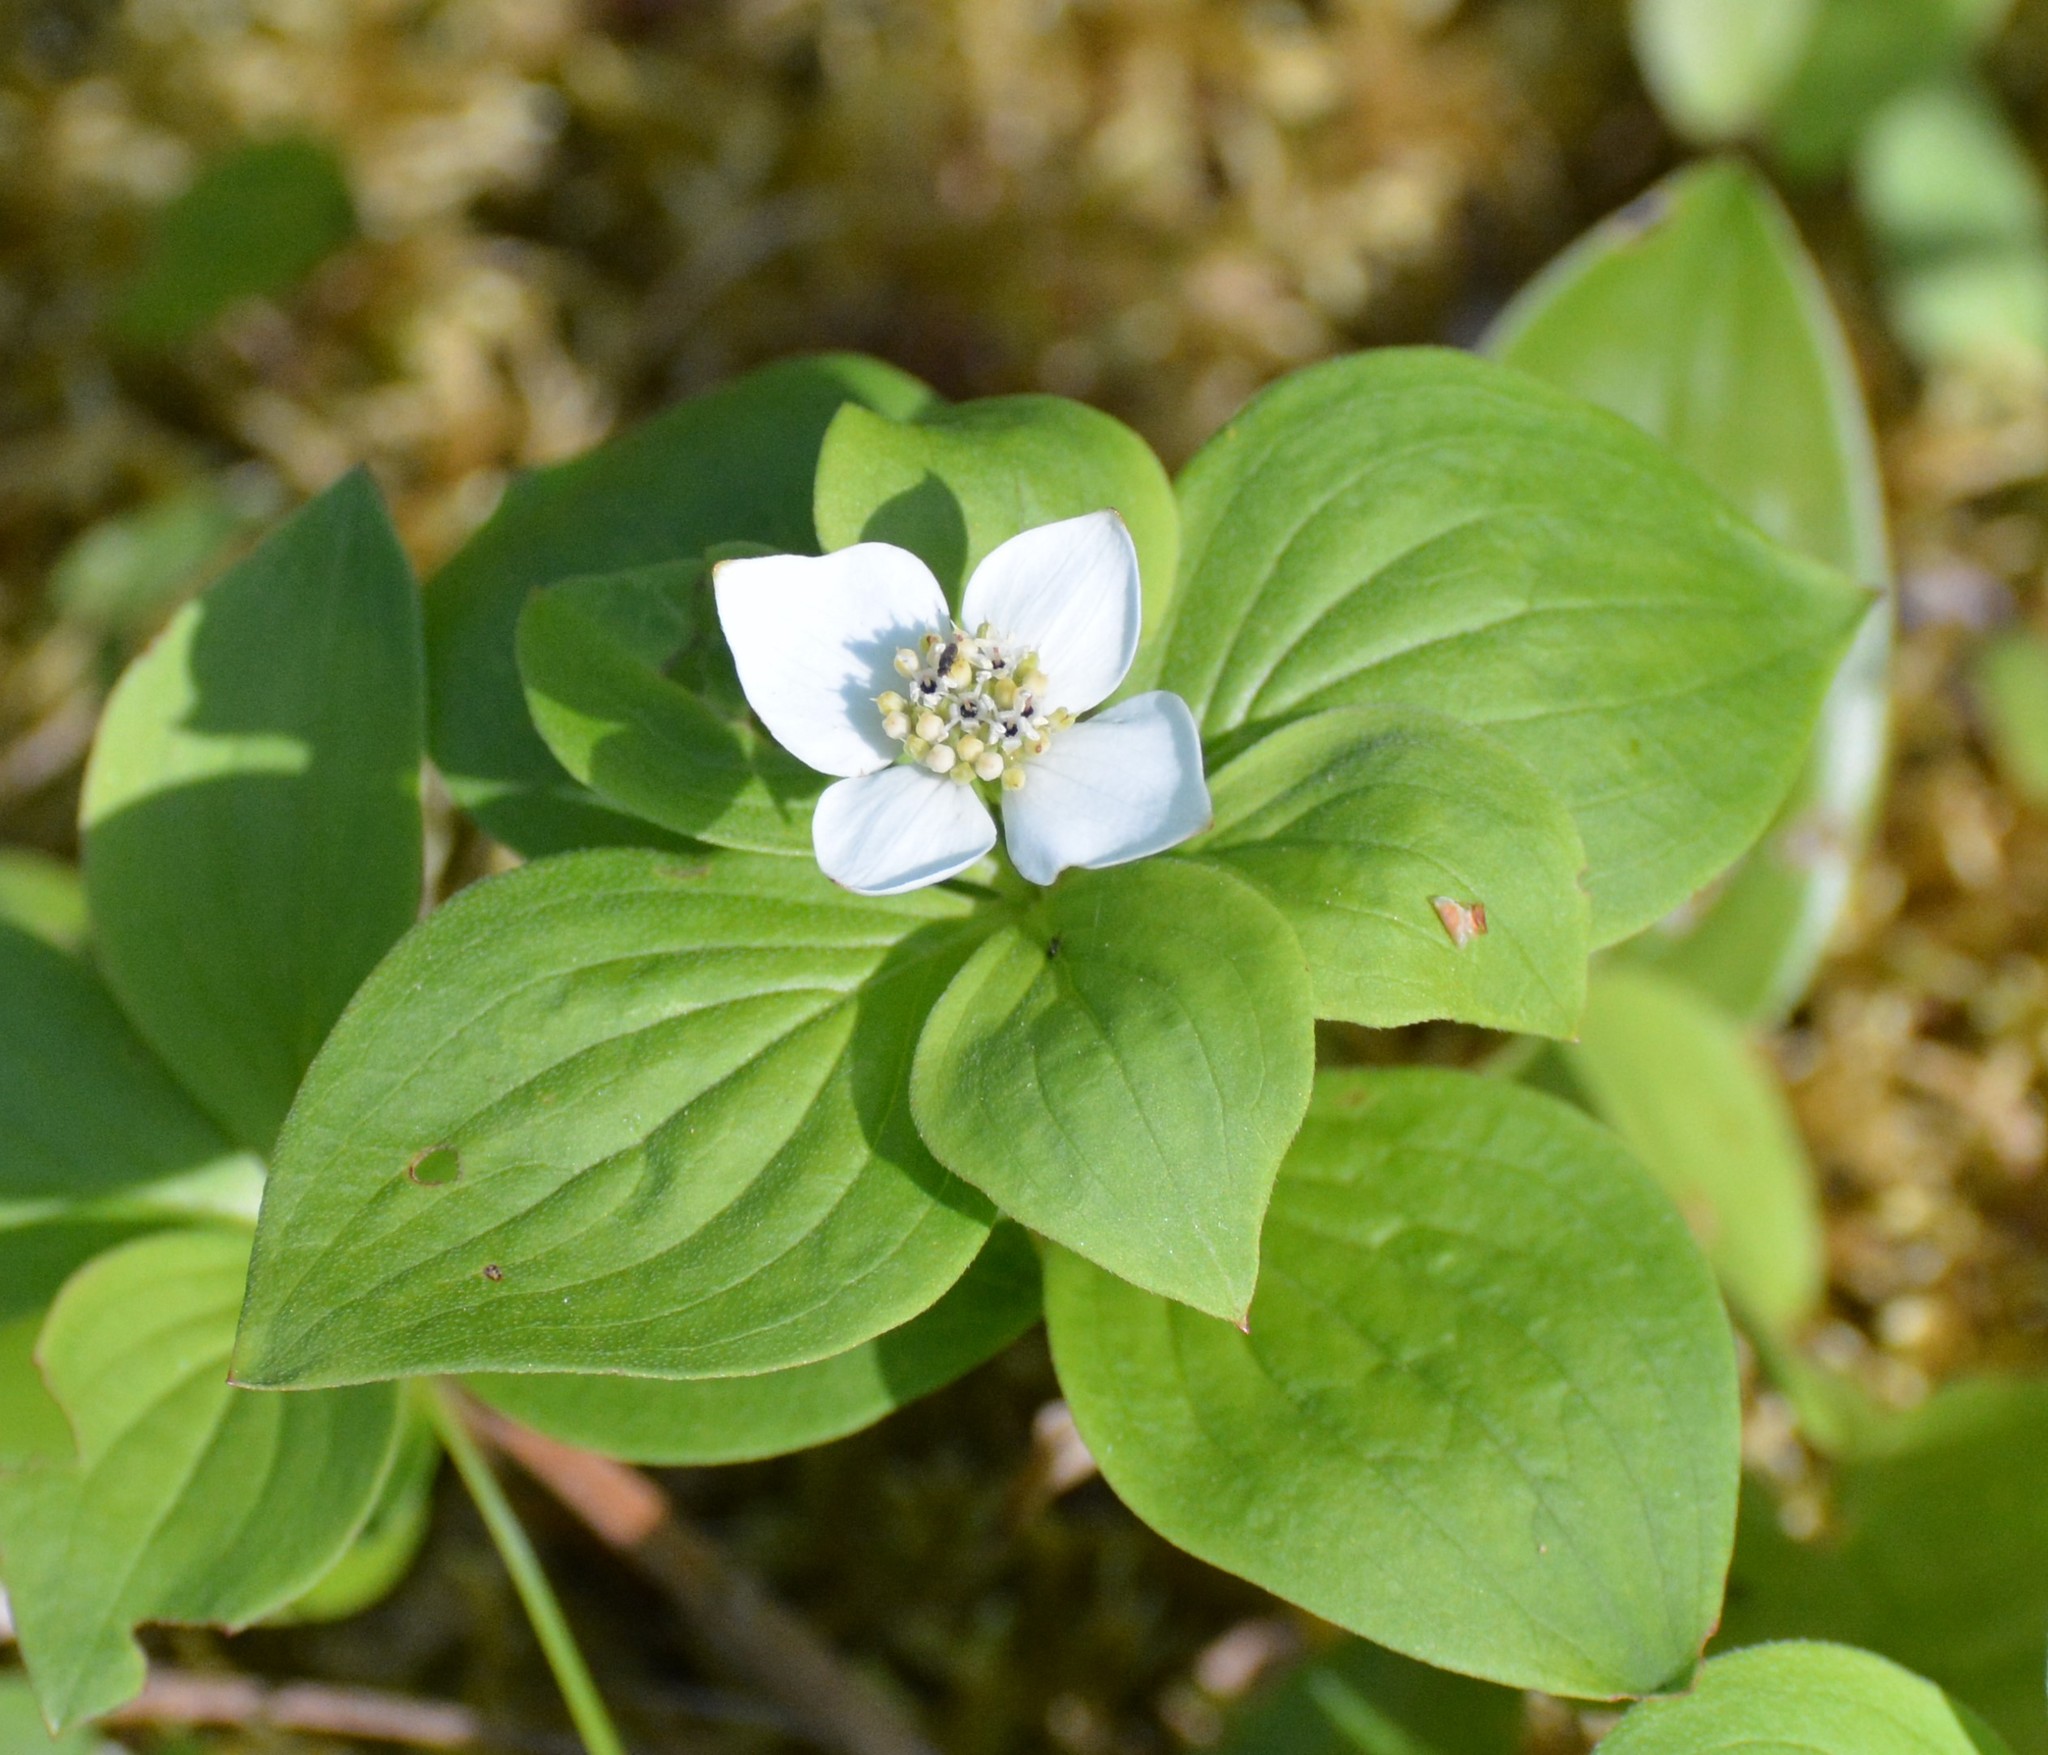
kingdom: Plantae
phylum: Tracheophyta
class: Magnoliopsida
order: Cornales
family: Cornaceae
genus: Cornus
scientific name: Cornus canadensis
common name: Creeping dogwood
